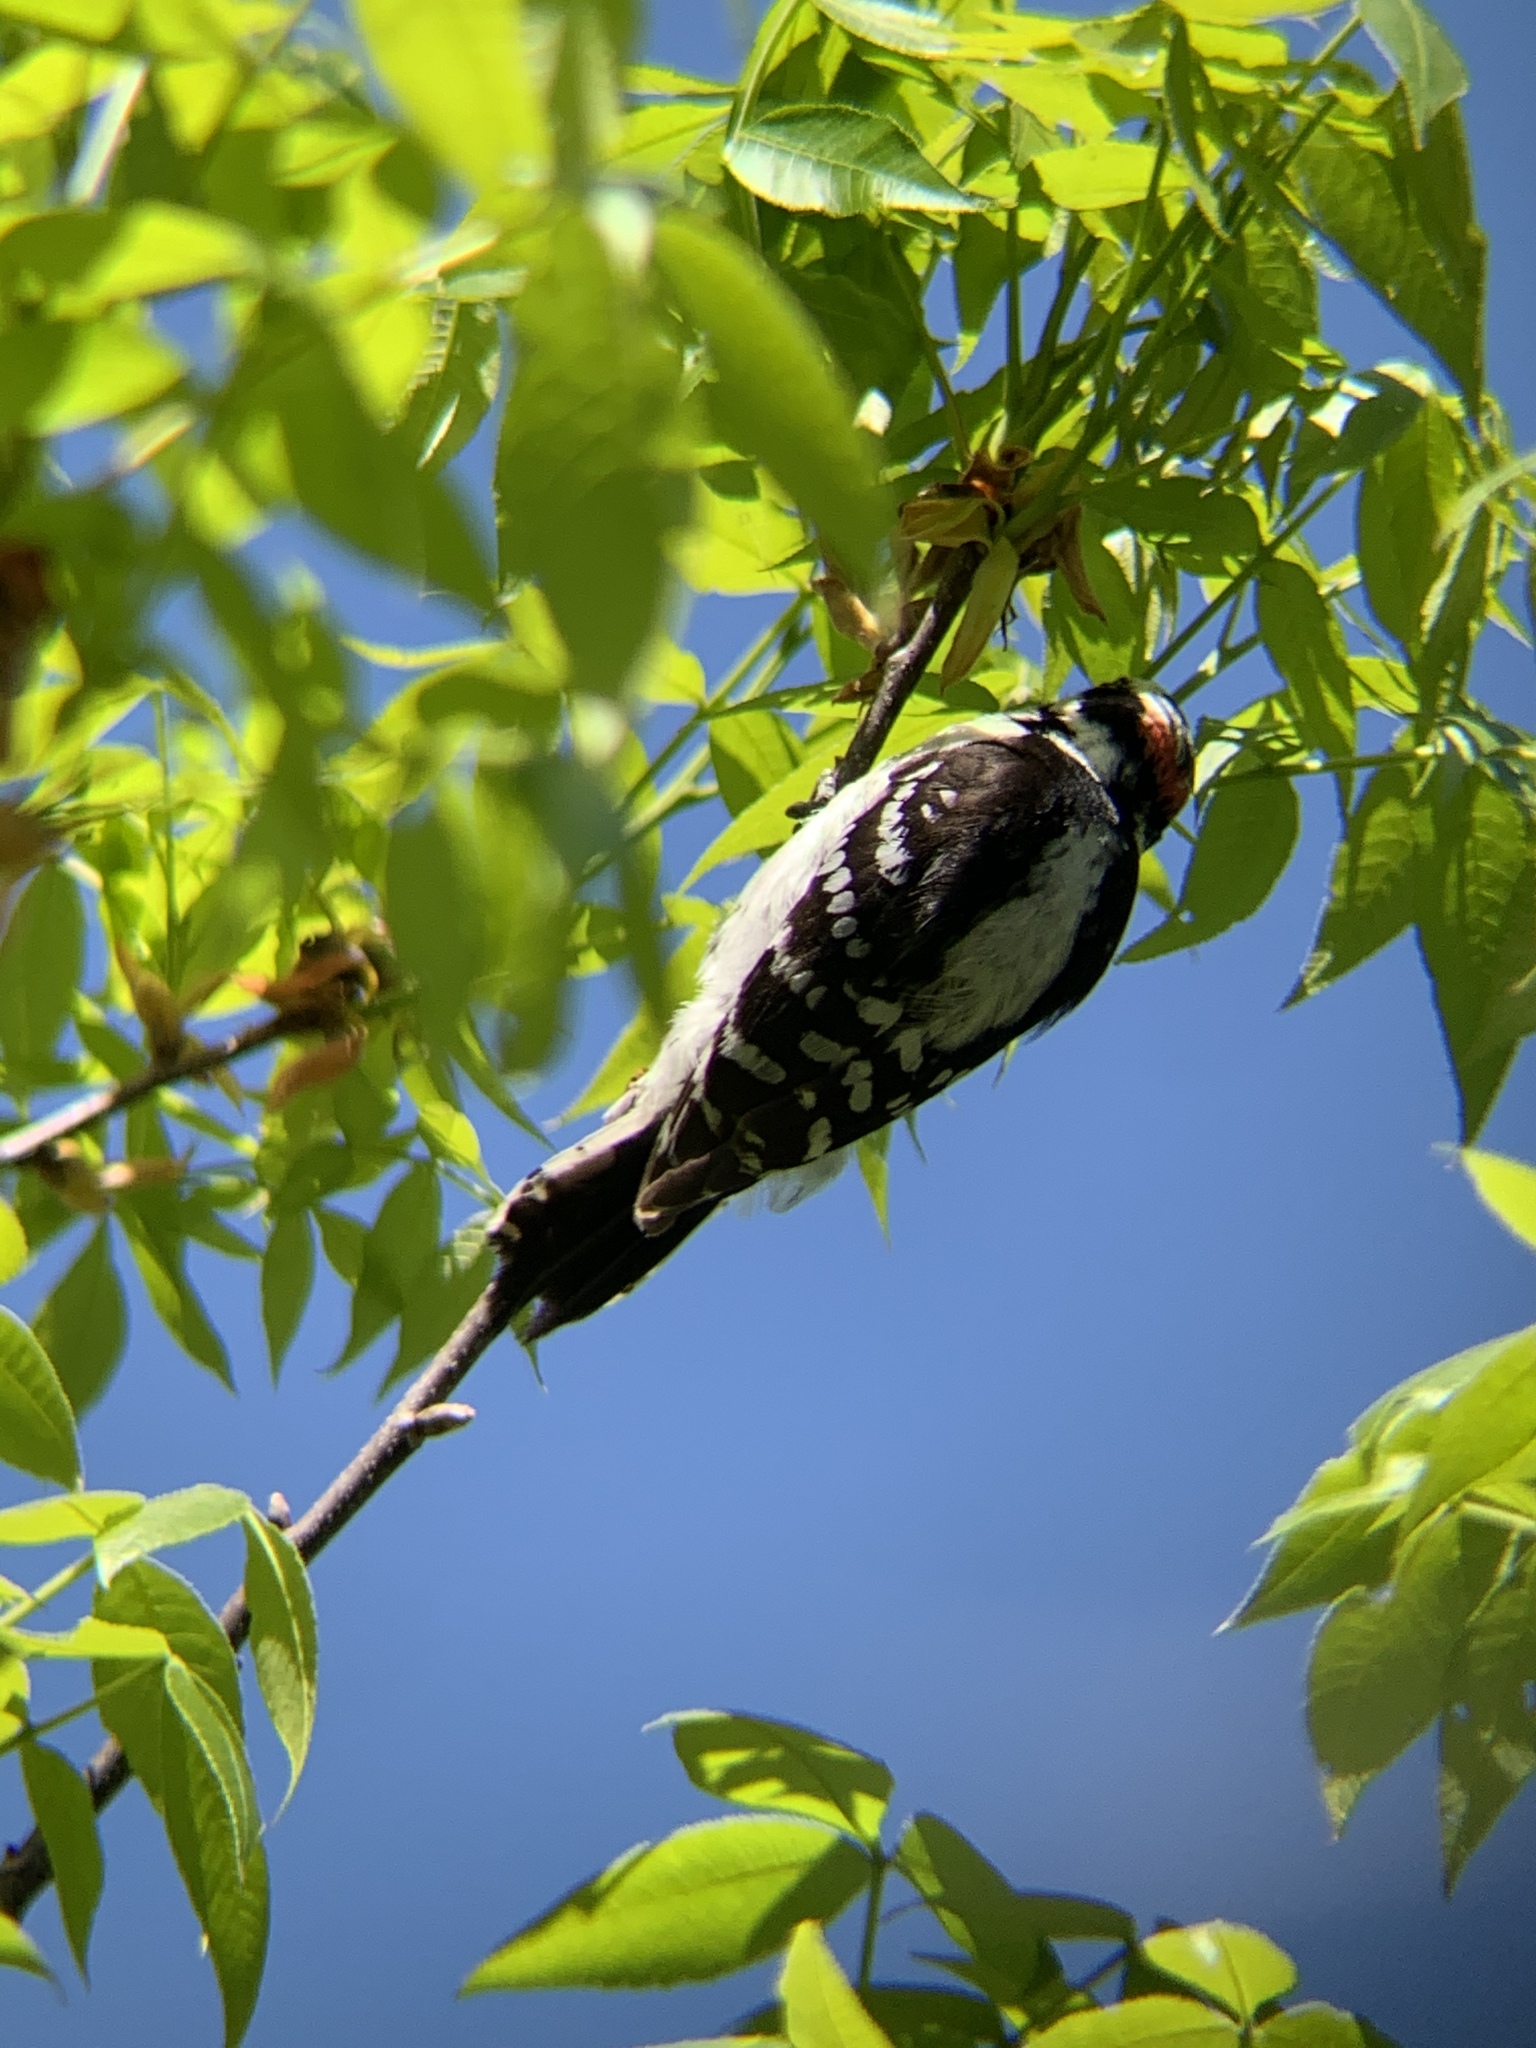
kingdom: Animalia
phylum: Chordata
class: Aves
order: Piciformes
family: Picidae
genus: Dryobates
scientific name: Dryobates pubescens
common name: Downy woodpecker
